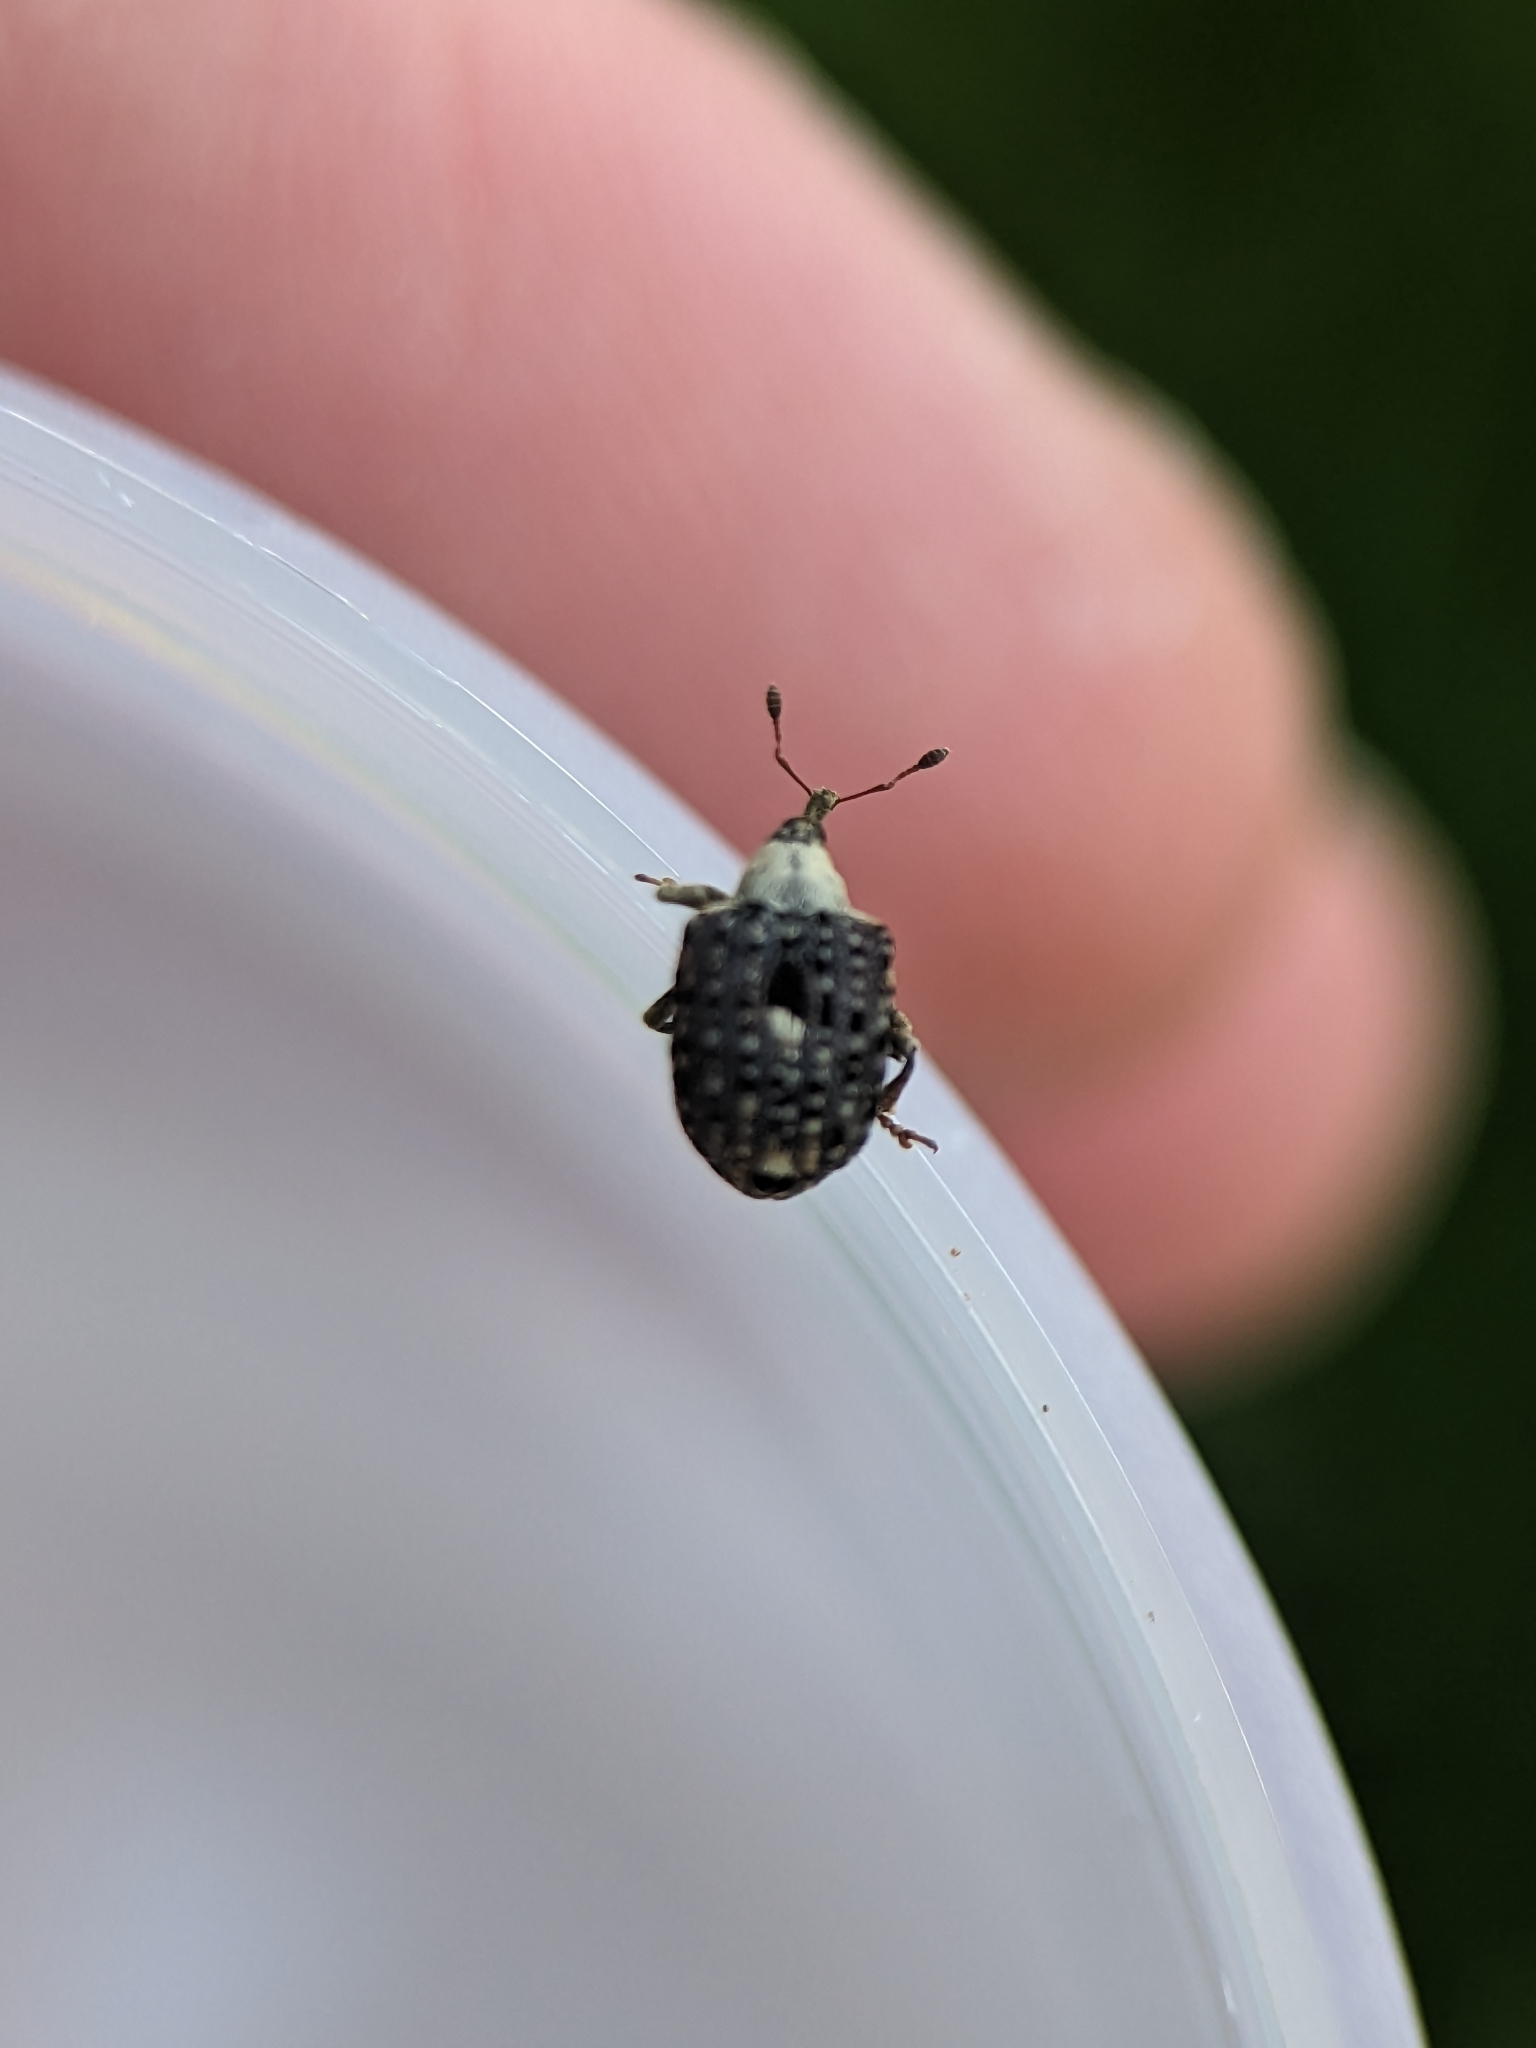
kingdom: Animalia
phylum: Arthropoda
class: Insecta
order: Coleoptera
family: Curculionidae
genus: Cionus
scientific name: Cionus scrophulariae
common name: Common figwort weevil
